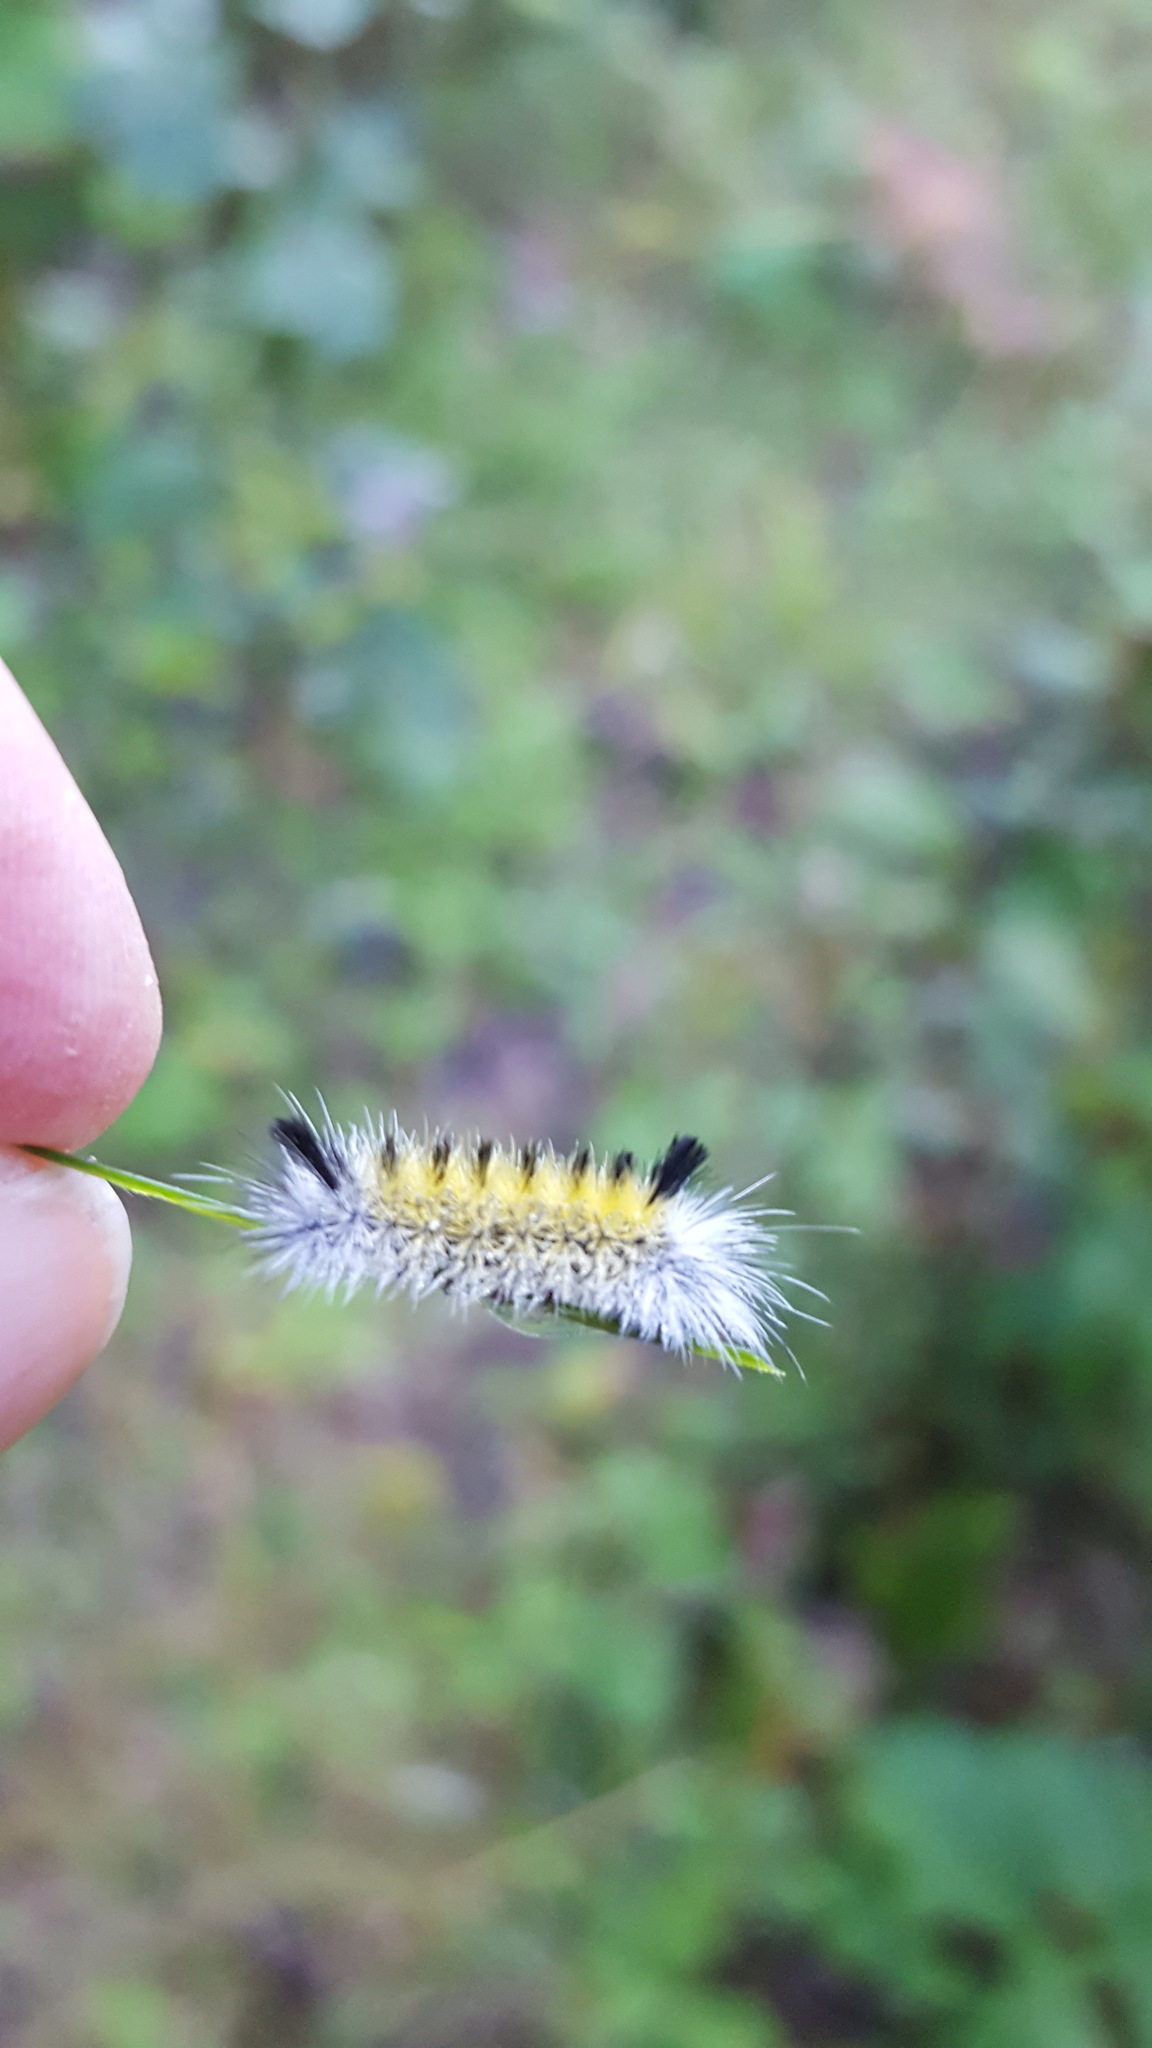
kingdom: Animalia
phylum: Arthropoda
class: Insecta
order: Lepidoptera
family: Erebidae
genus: Ctenucha
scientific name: Ctenucha virginica
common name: Virginia ctenucha moth
